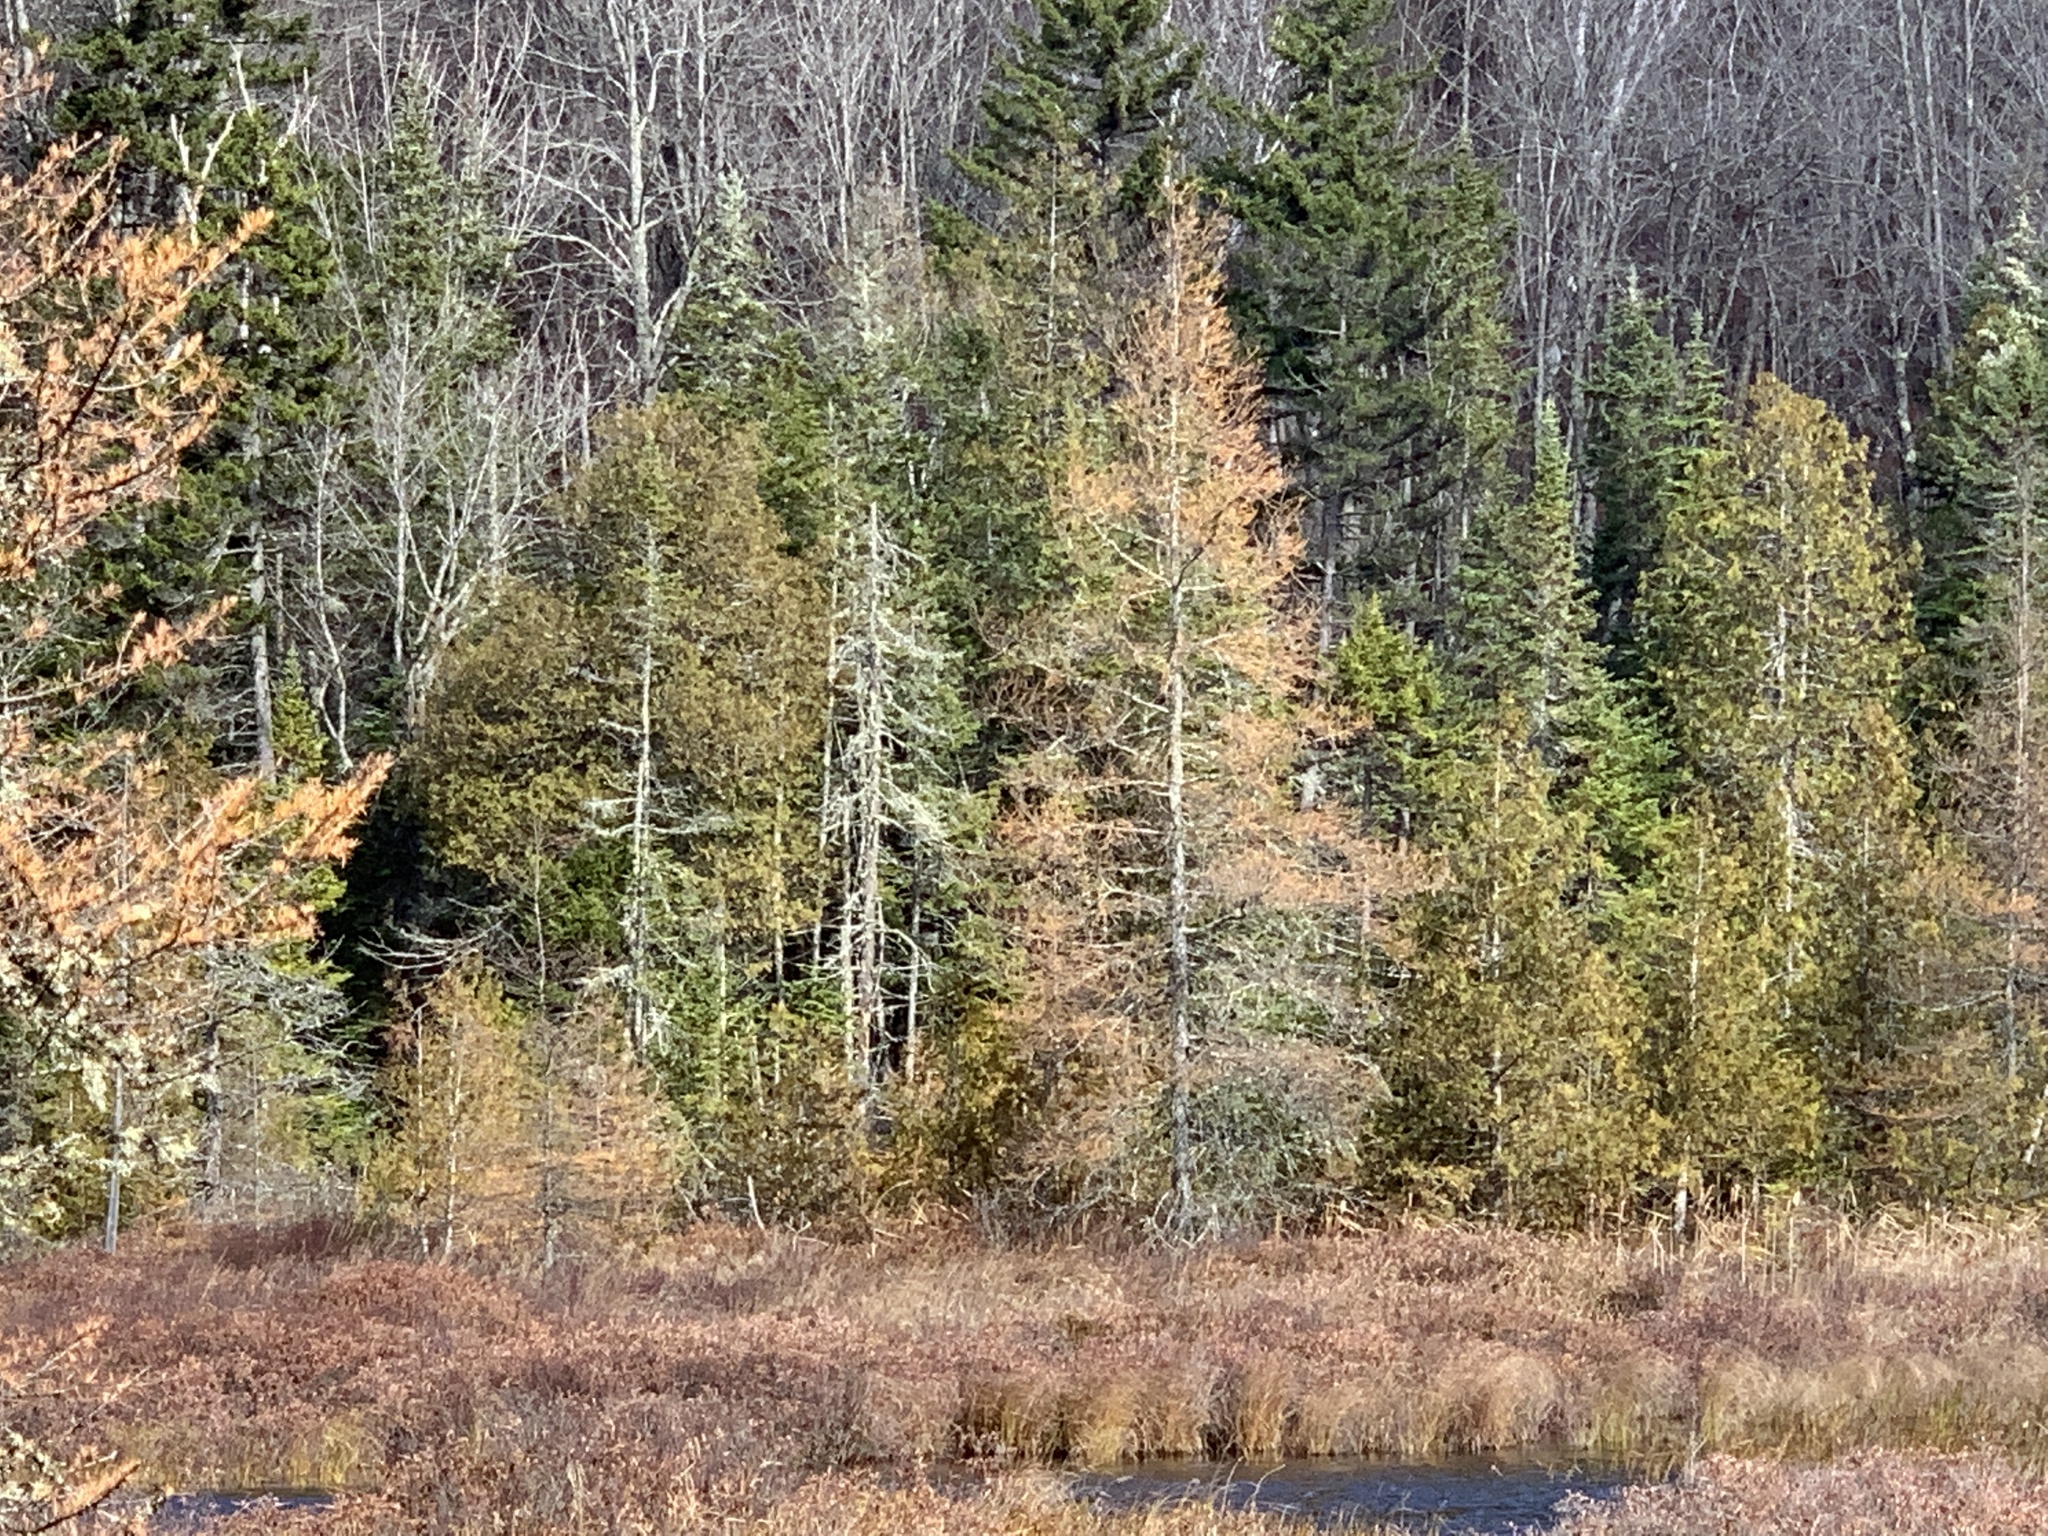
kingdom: Plantae
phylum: Tracheophyta
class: Pinopsida
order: Pinales
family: Cupressaceae
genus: Thuja
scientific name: Thuja occidentalis
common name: Northern white-cedar
